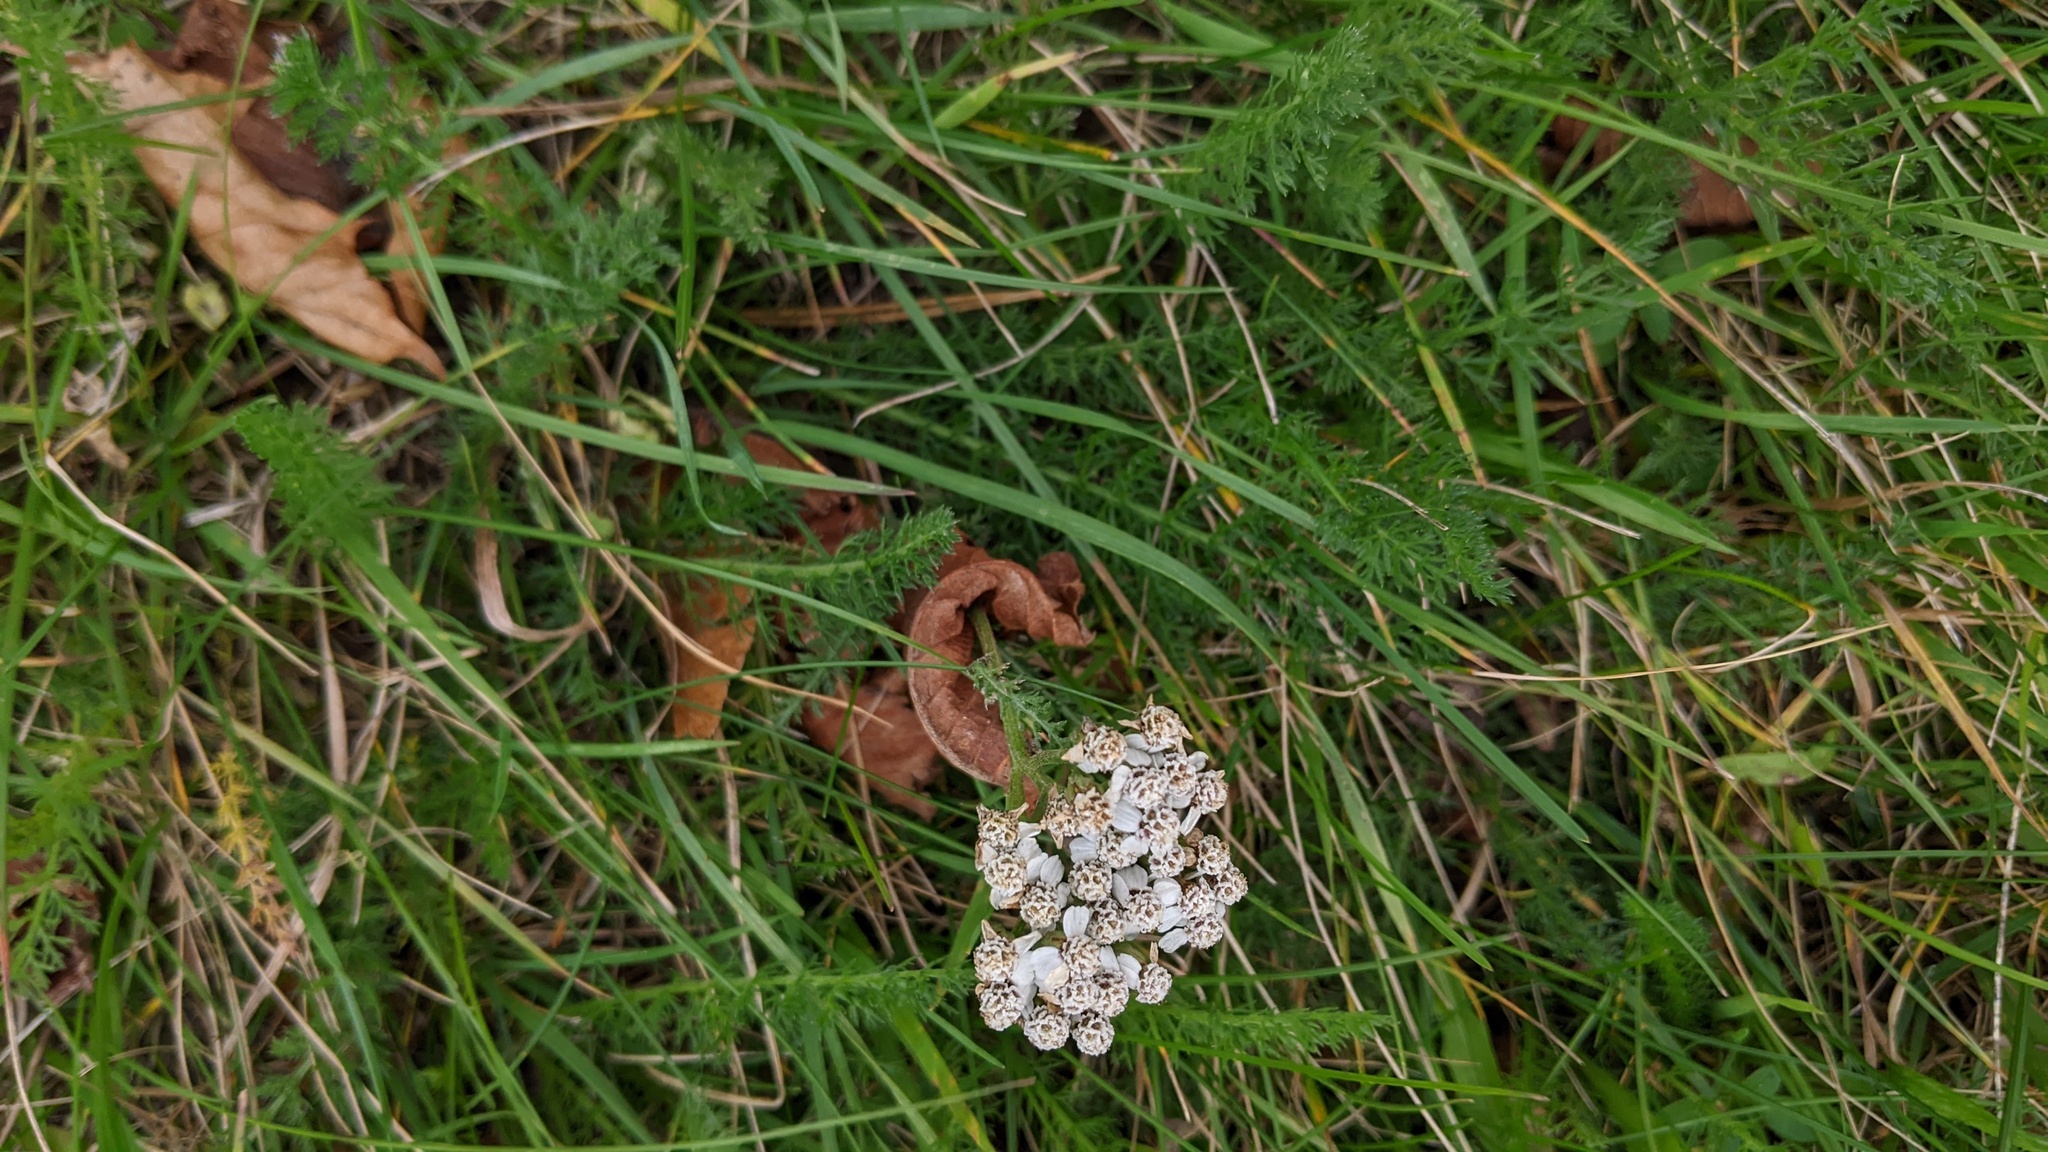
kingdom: Plantae
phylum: Tracheophyta
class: Magnoliopsida
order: Asterales
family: Asteraceae
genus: Achillea
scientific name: Achillea millefolium
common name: Yarrow
